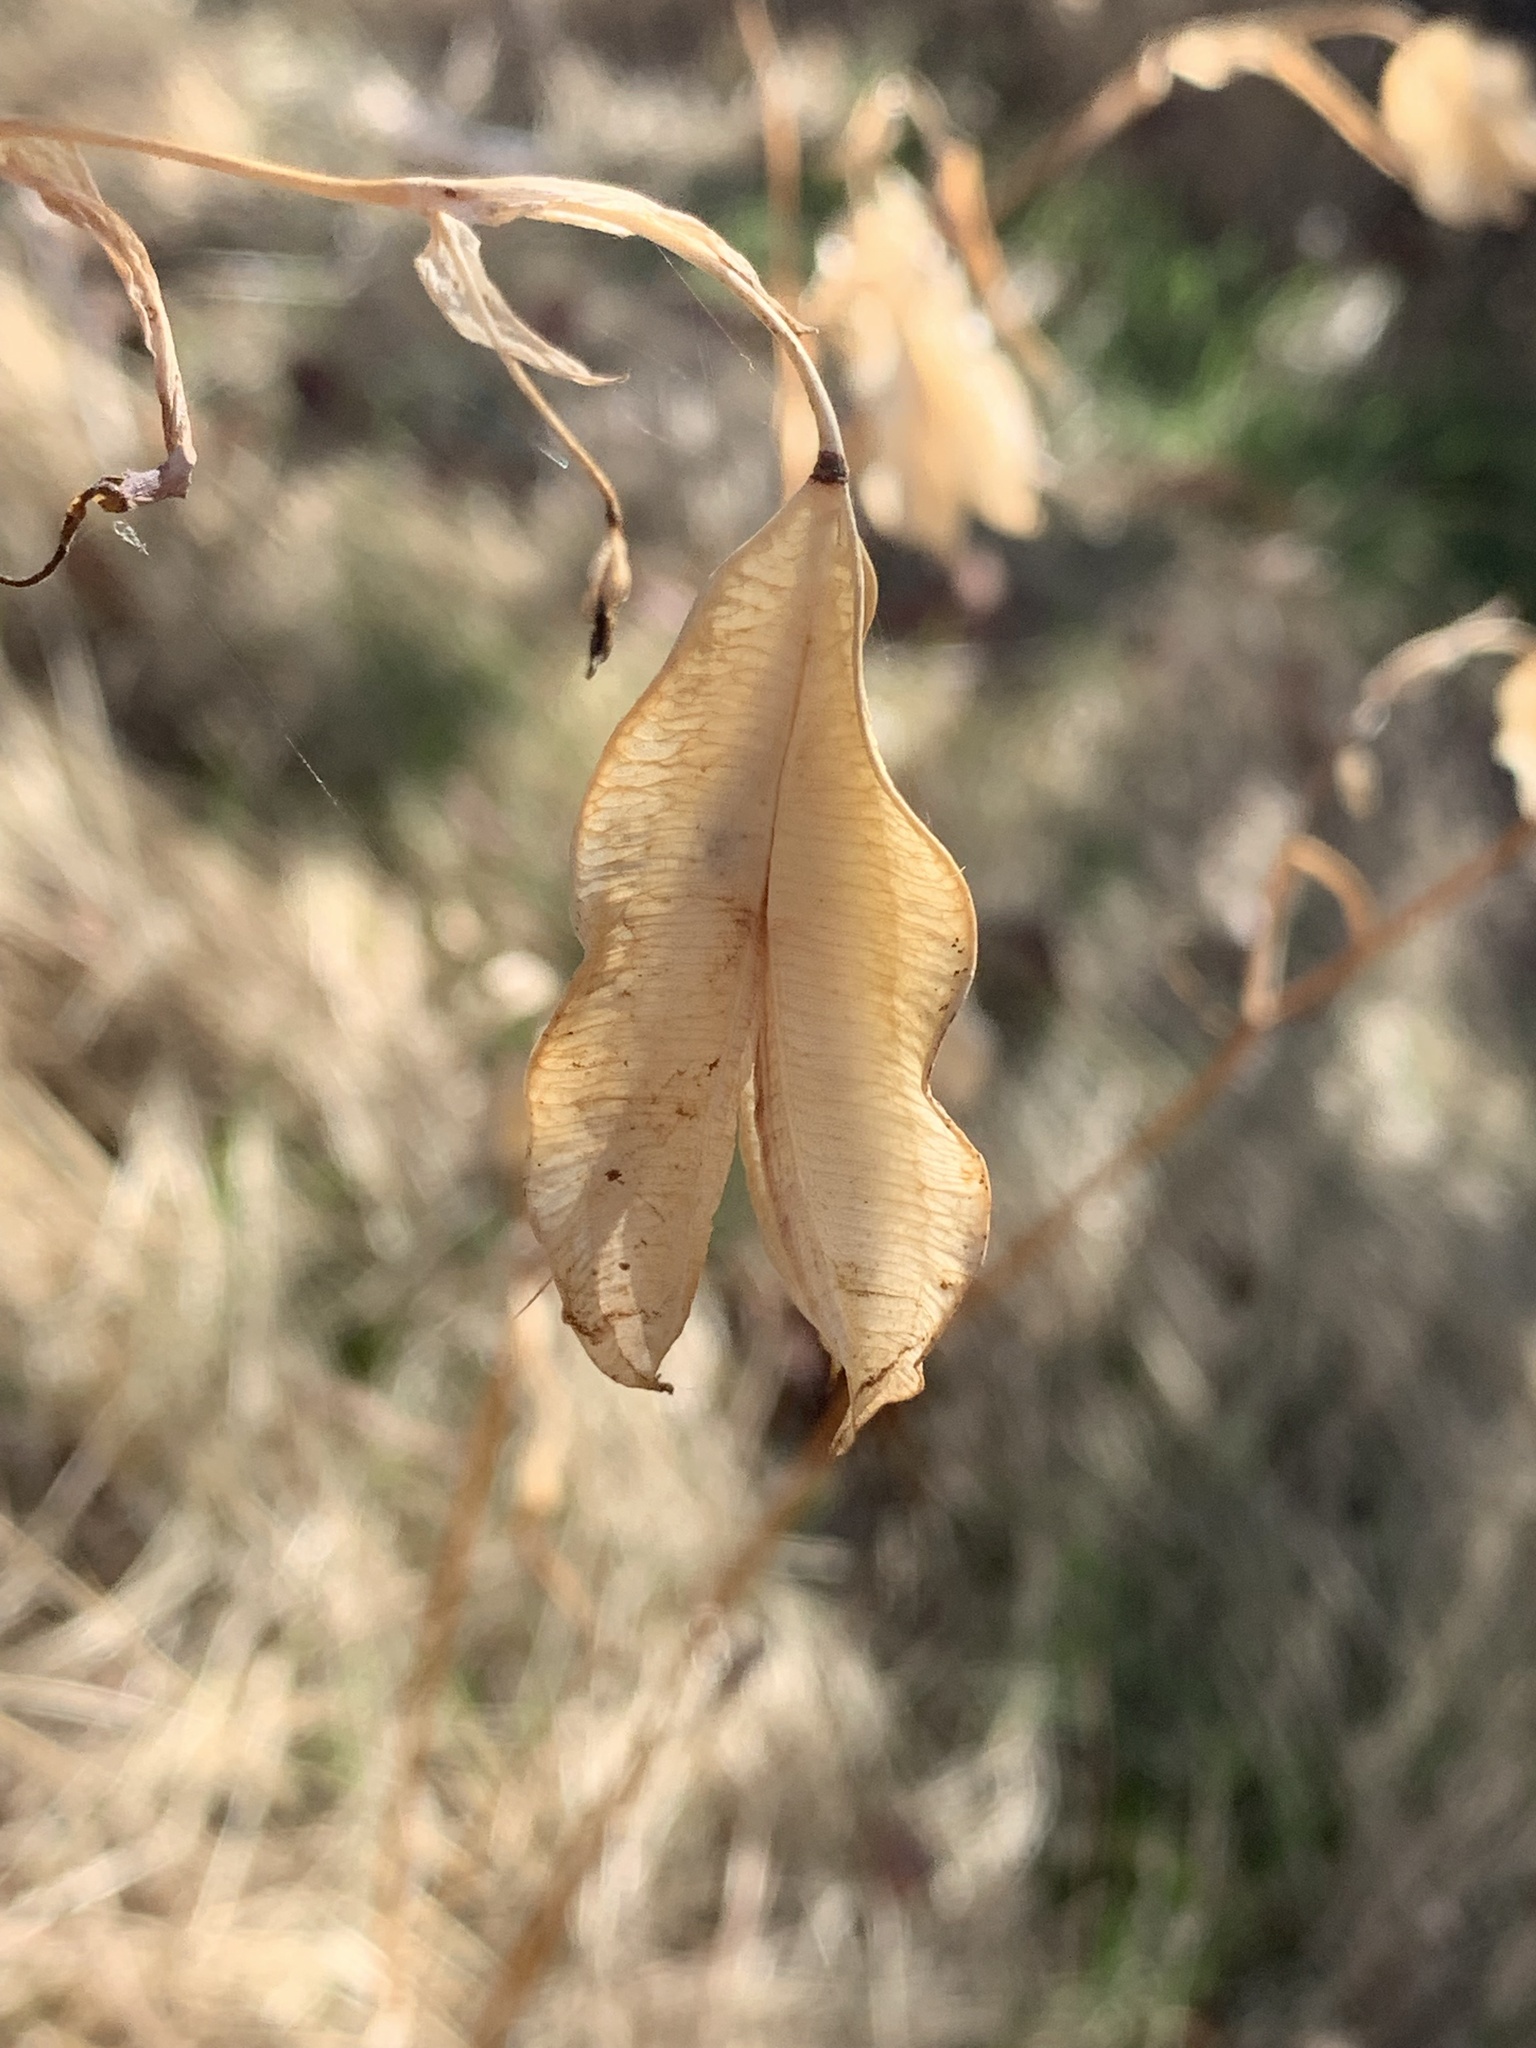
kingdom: Plantae
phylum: Tracheophyta
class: Liliopsida
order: Liliales
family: Liliaceae
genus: Calochortus
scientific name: Calochortus albus
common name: Fairy-lantern
